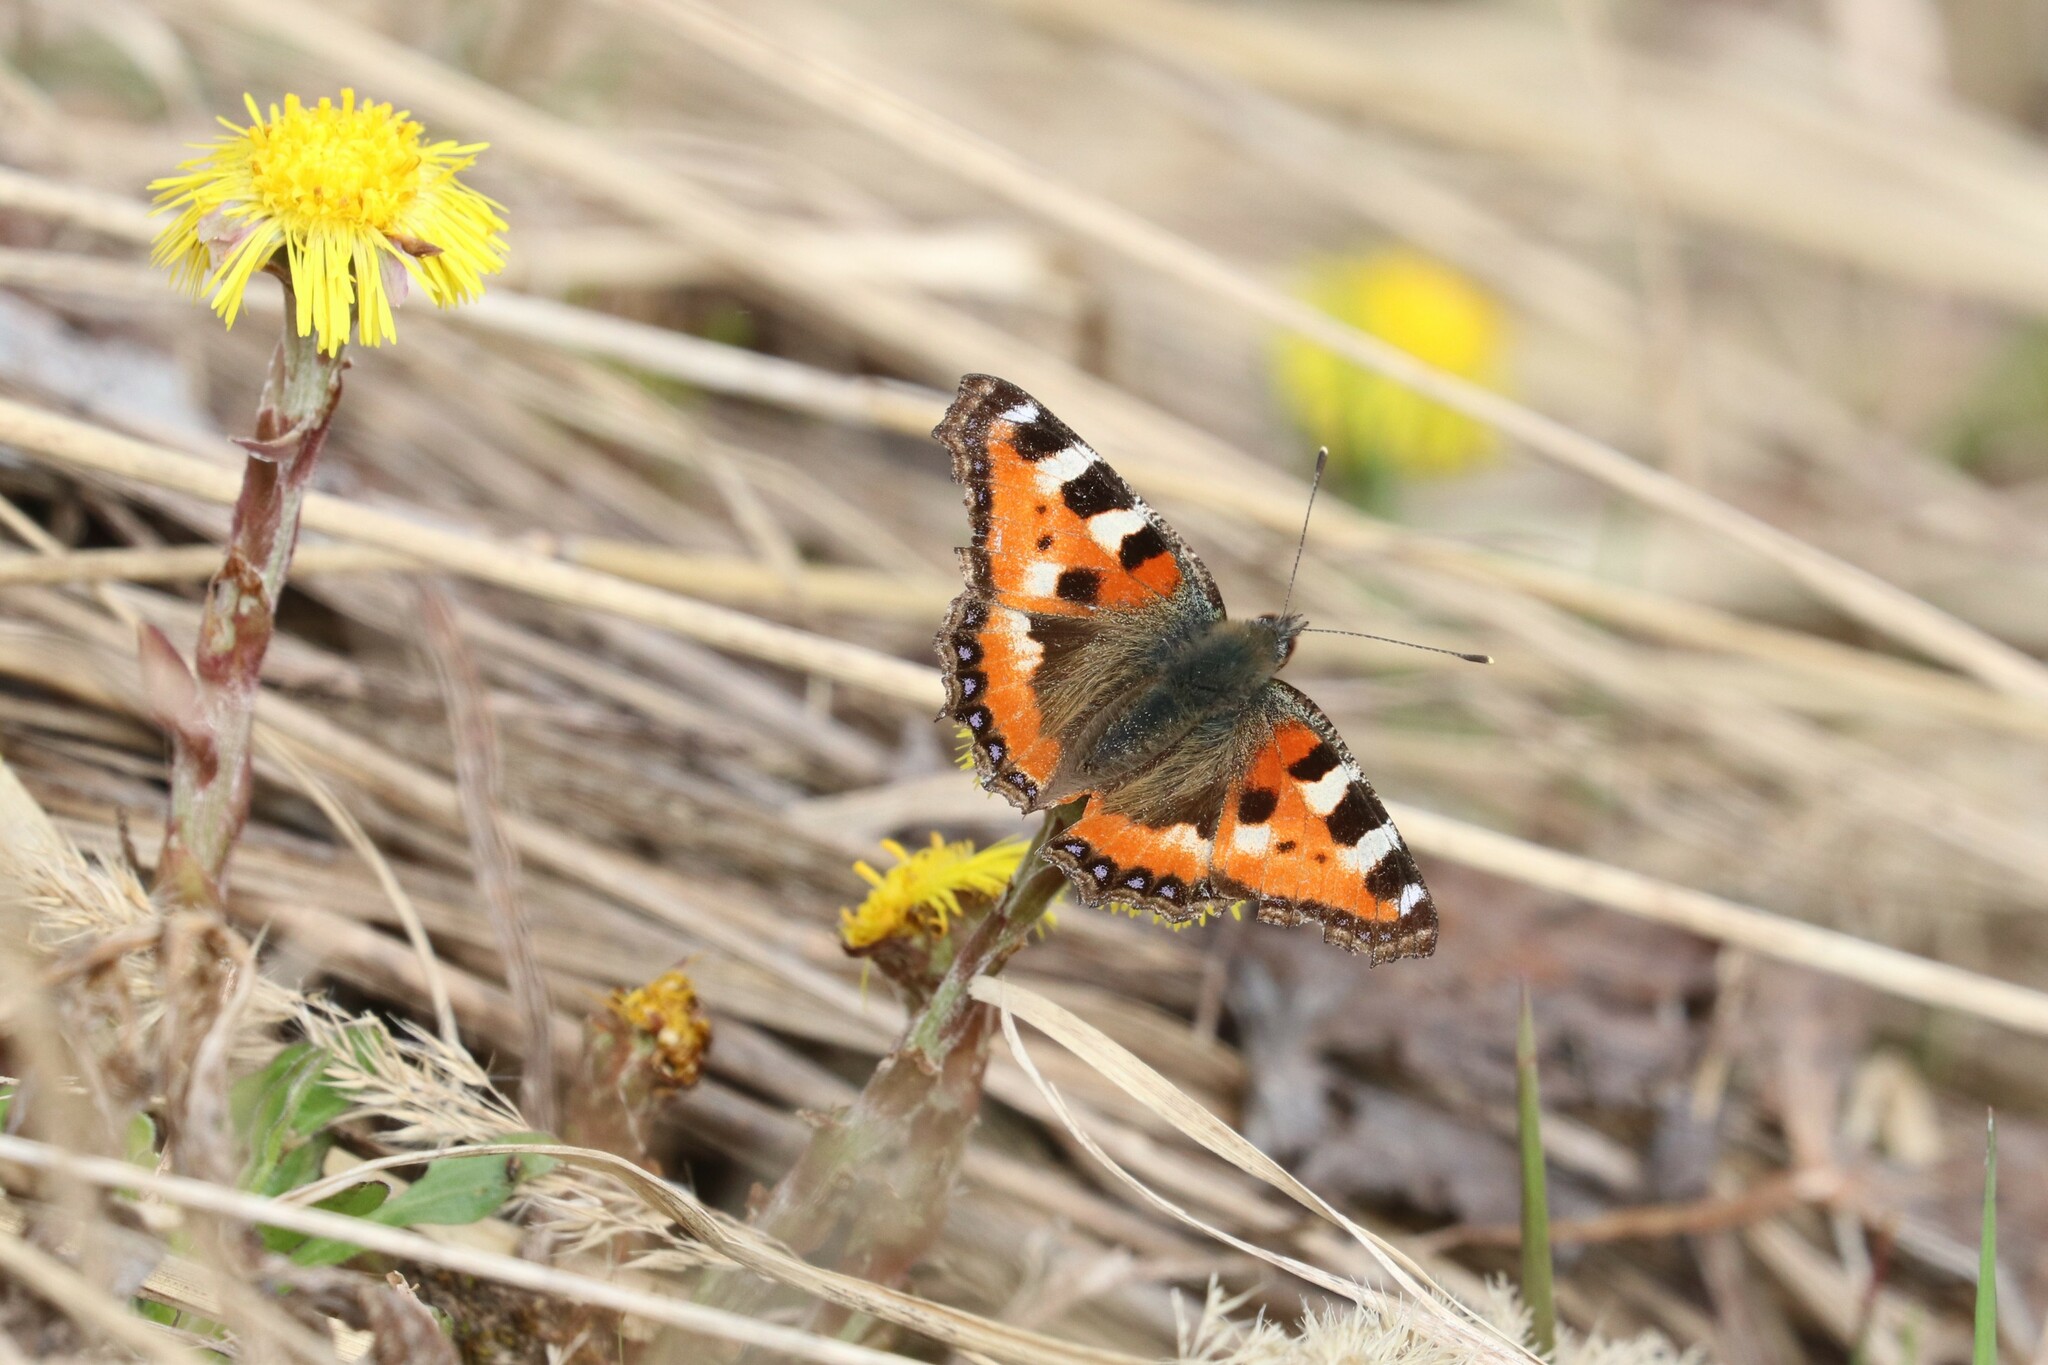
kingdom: Animalia
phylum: Arthropoda
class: Insecta
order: Lepidoptera
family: Nymphalidae
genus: Aglais
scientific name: Aglais urticae
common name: Small tortoiseshell
